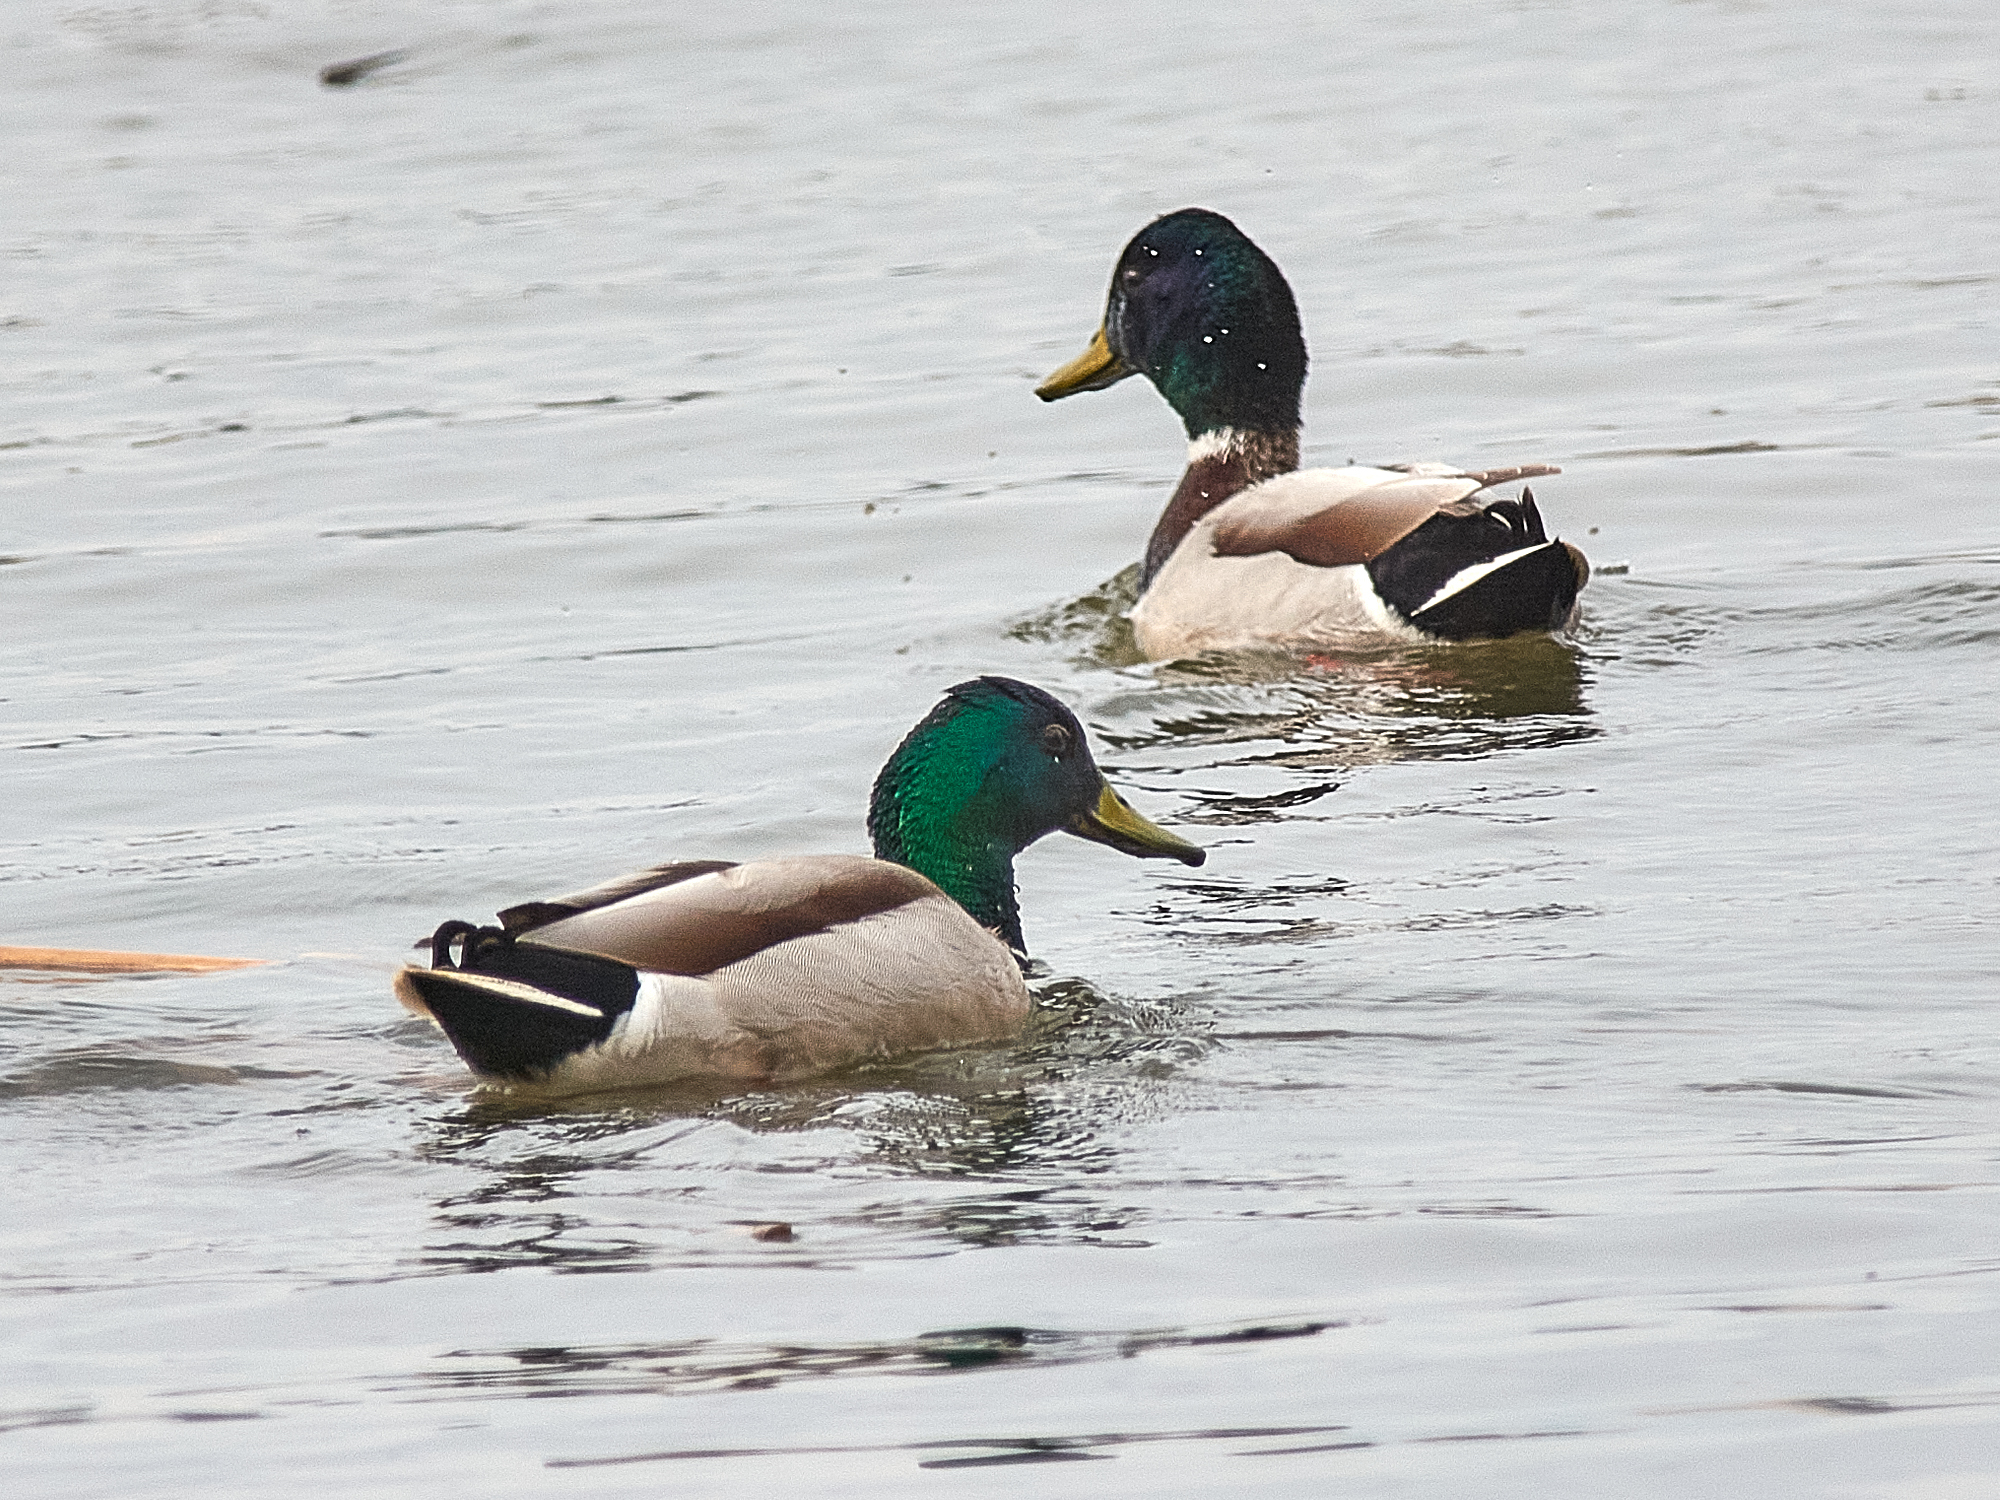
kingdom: Animalia
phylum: Chordata
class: Aves
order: Anseriformes
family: Anatidae
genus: Anas
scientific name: Anas platyrhynchos
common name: Mallard
